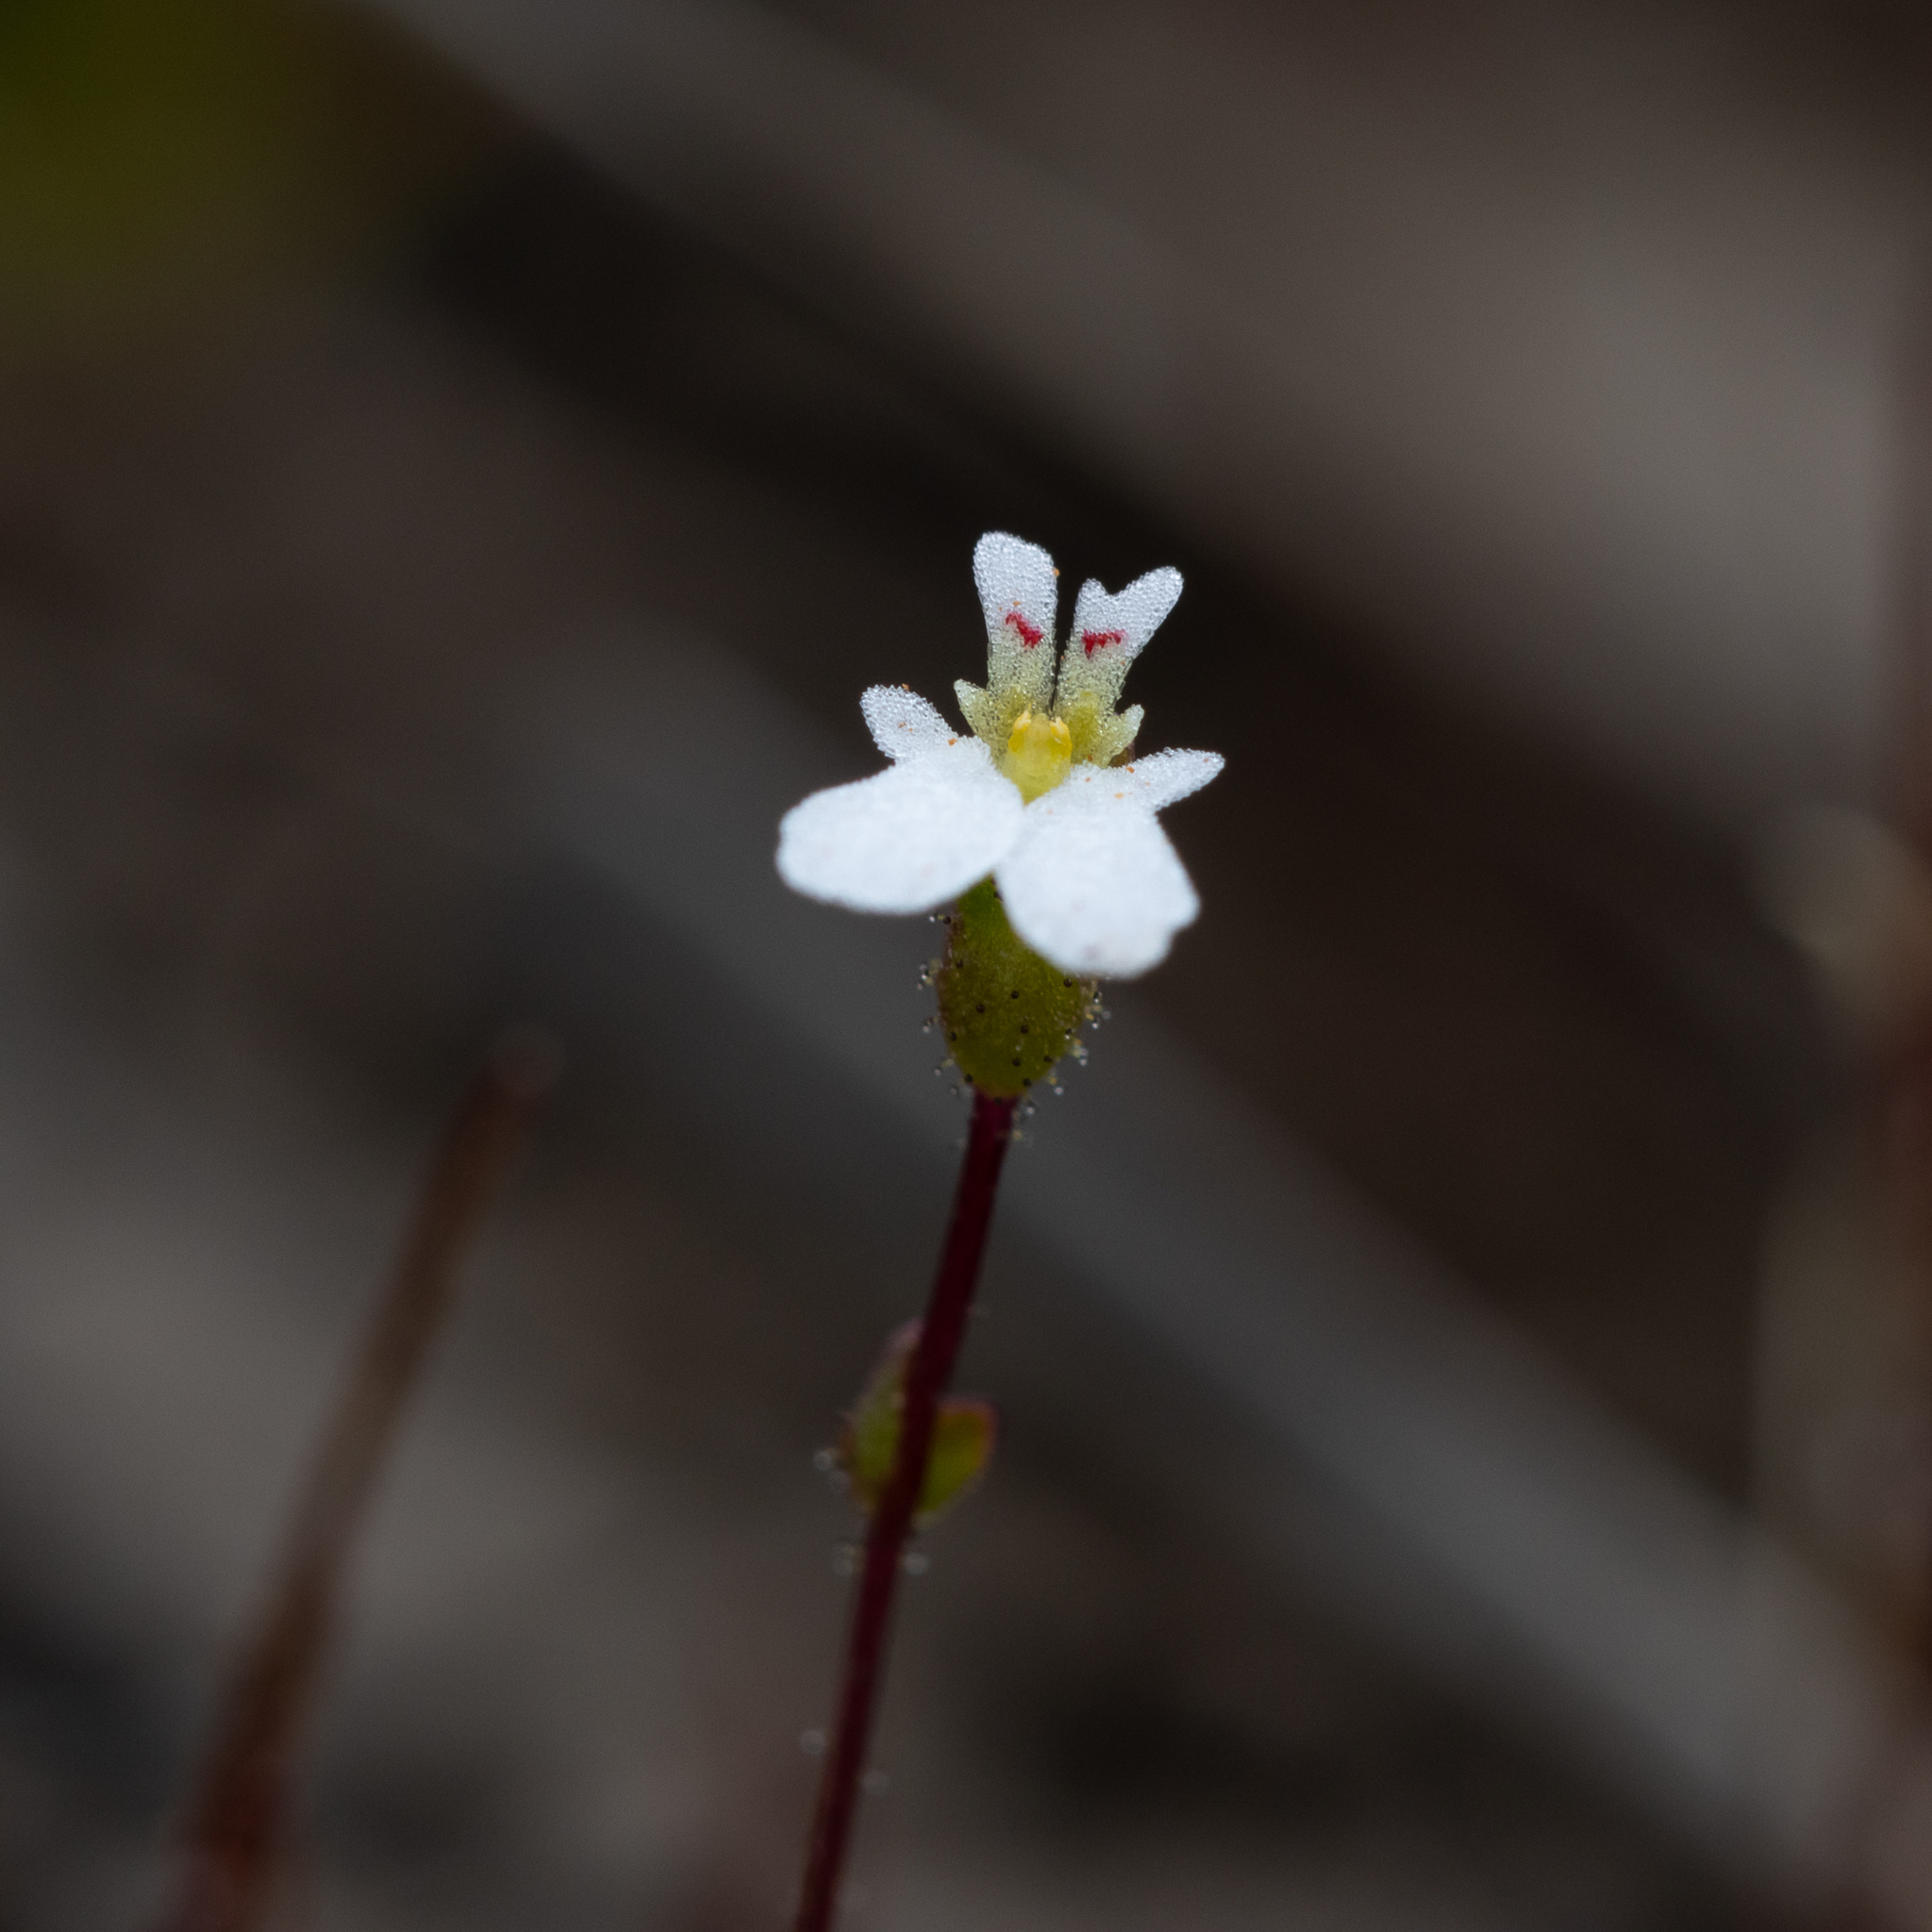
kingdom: Plantae
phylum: Tracheophyta
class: Magnoliopsida
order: Asterales
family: Stylidiaceae
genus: Stylidium
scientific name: Stylidium perpusillum
